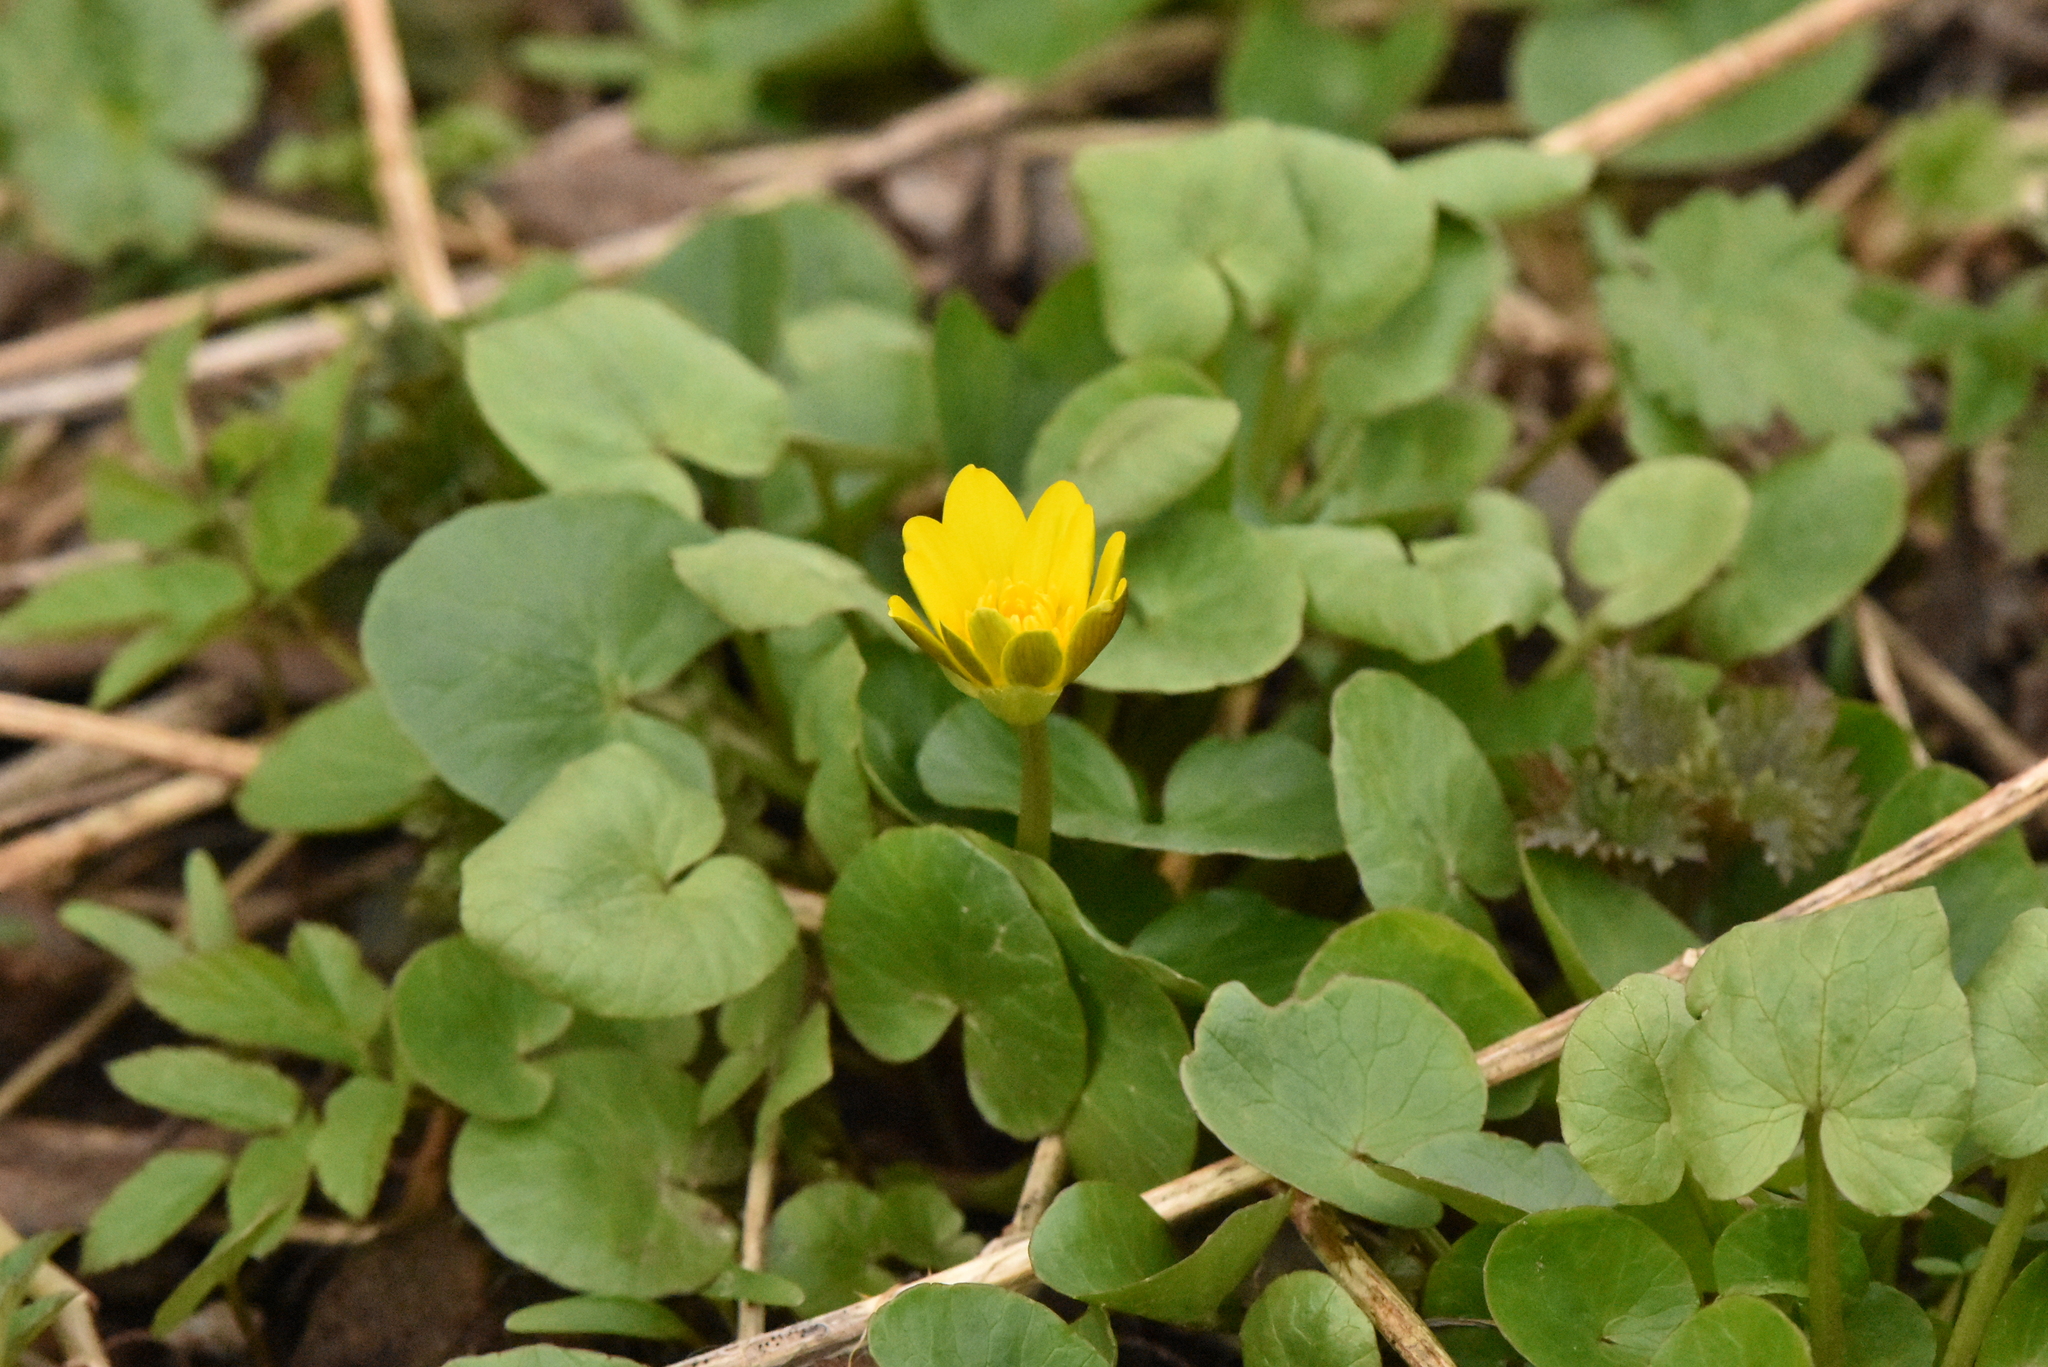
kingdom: Plantae
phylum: Tracheophyta
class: Magnoliopsida
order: Ranunculales
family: Ranunculaceae
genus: Ficaria
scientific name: Ficaria verna
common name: Lesser celandine
